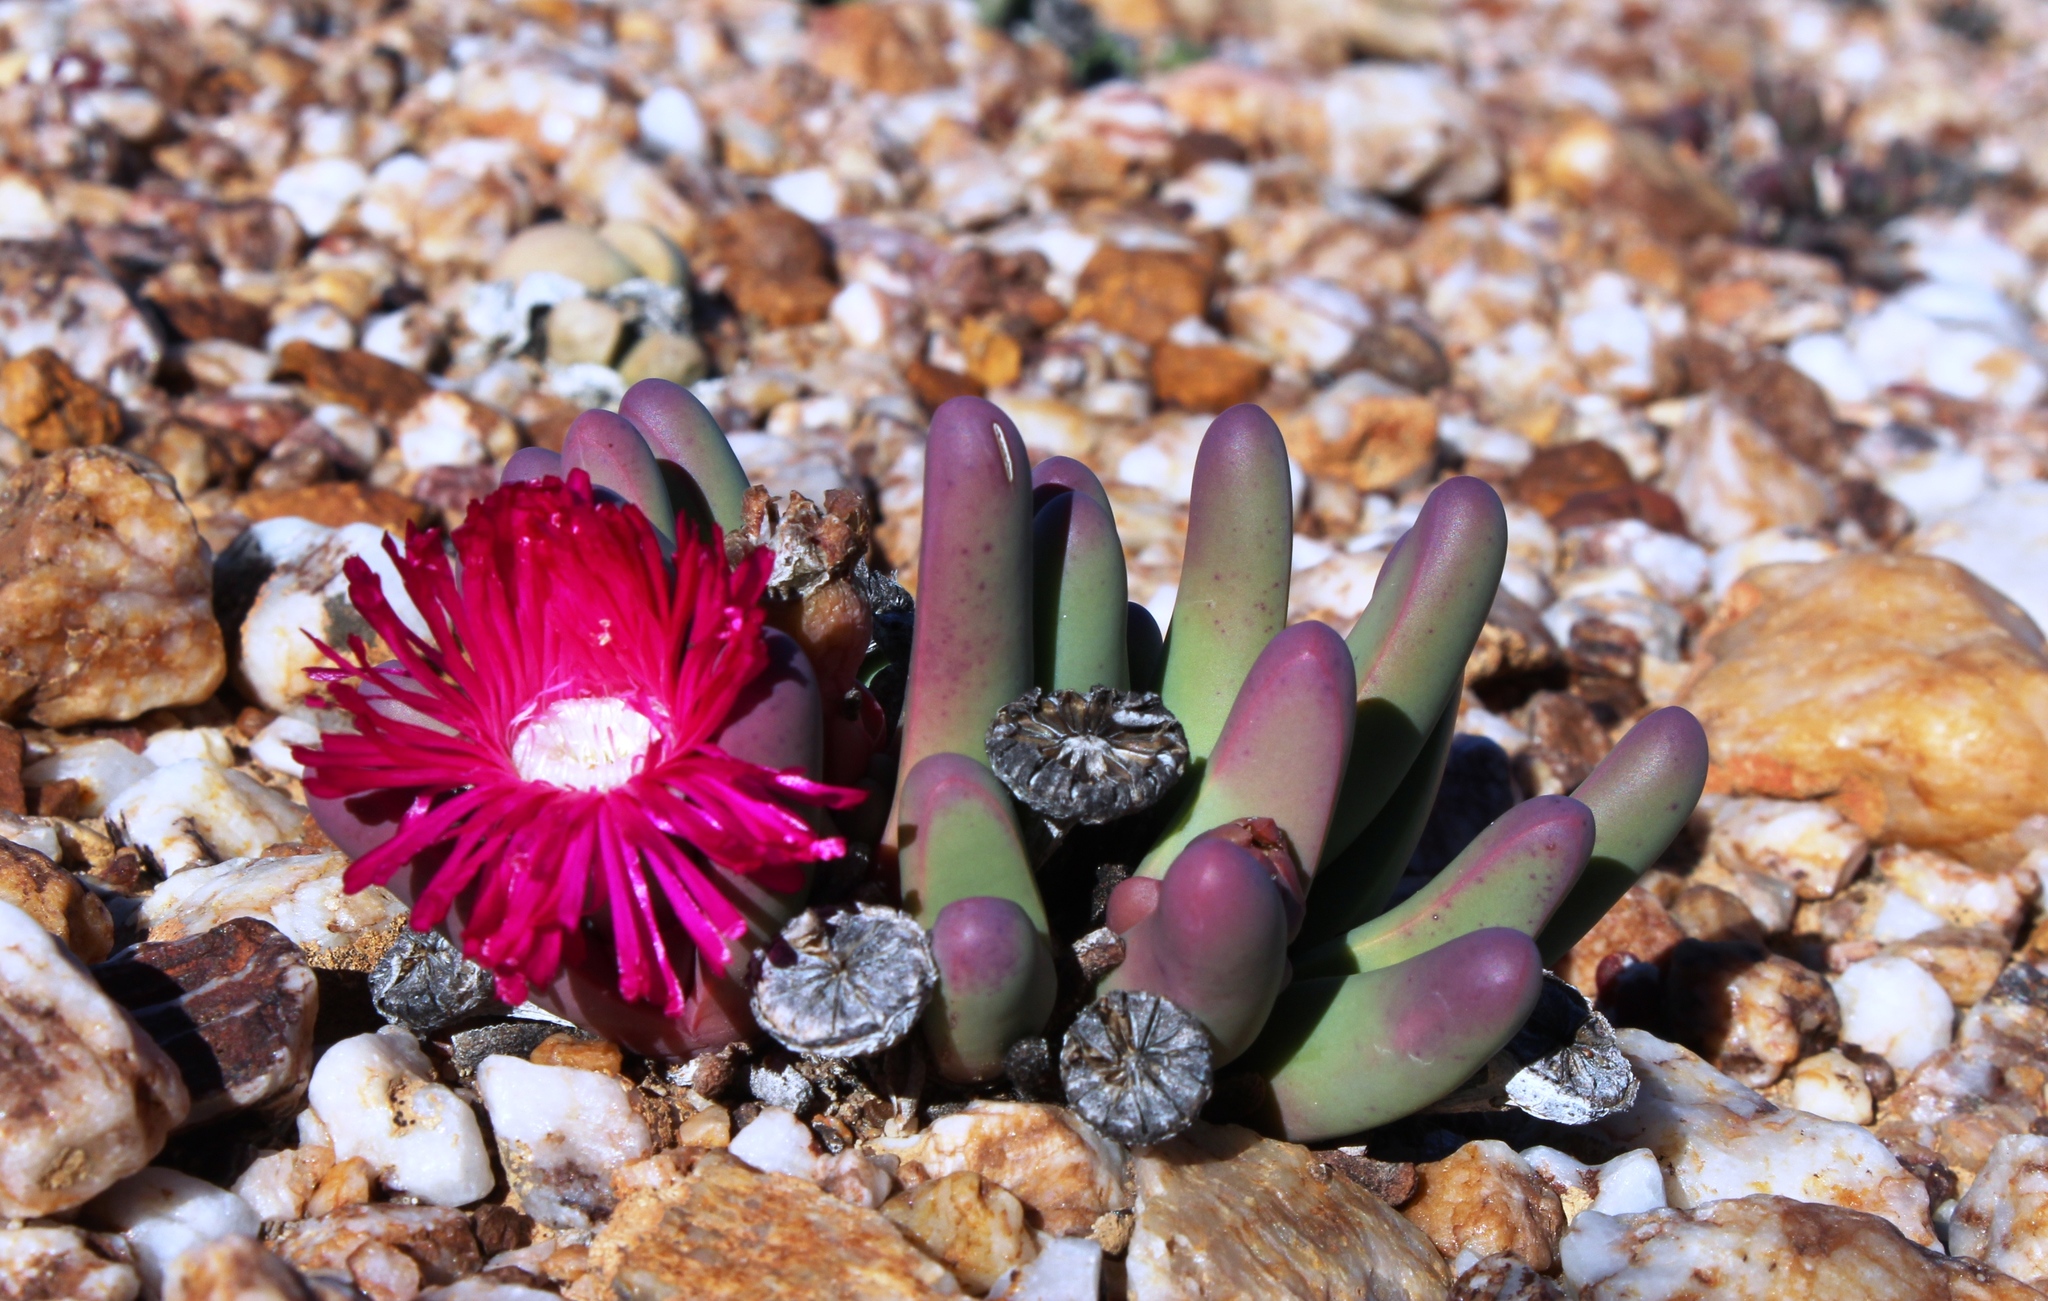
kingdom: Plantae
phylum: Tracheophyta
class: Magnoliopsida
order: Caryophyllales
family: Aizoaceae
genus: Argyroderma
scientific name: Argyroderma fissum
